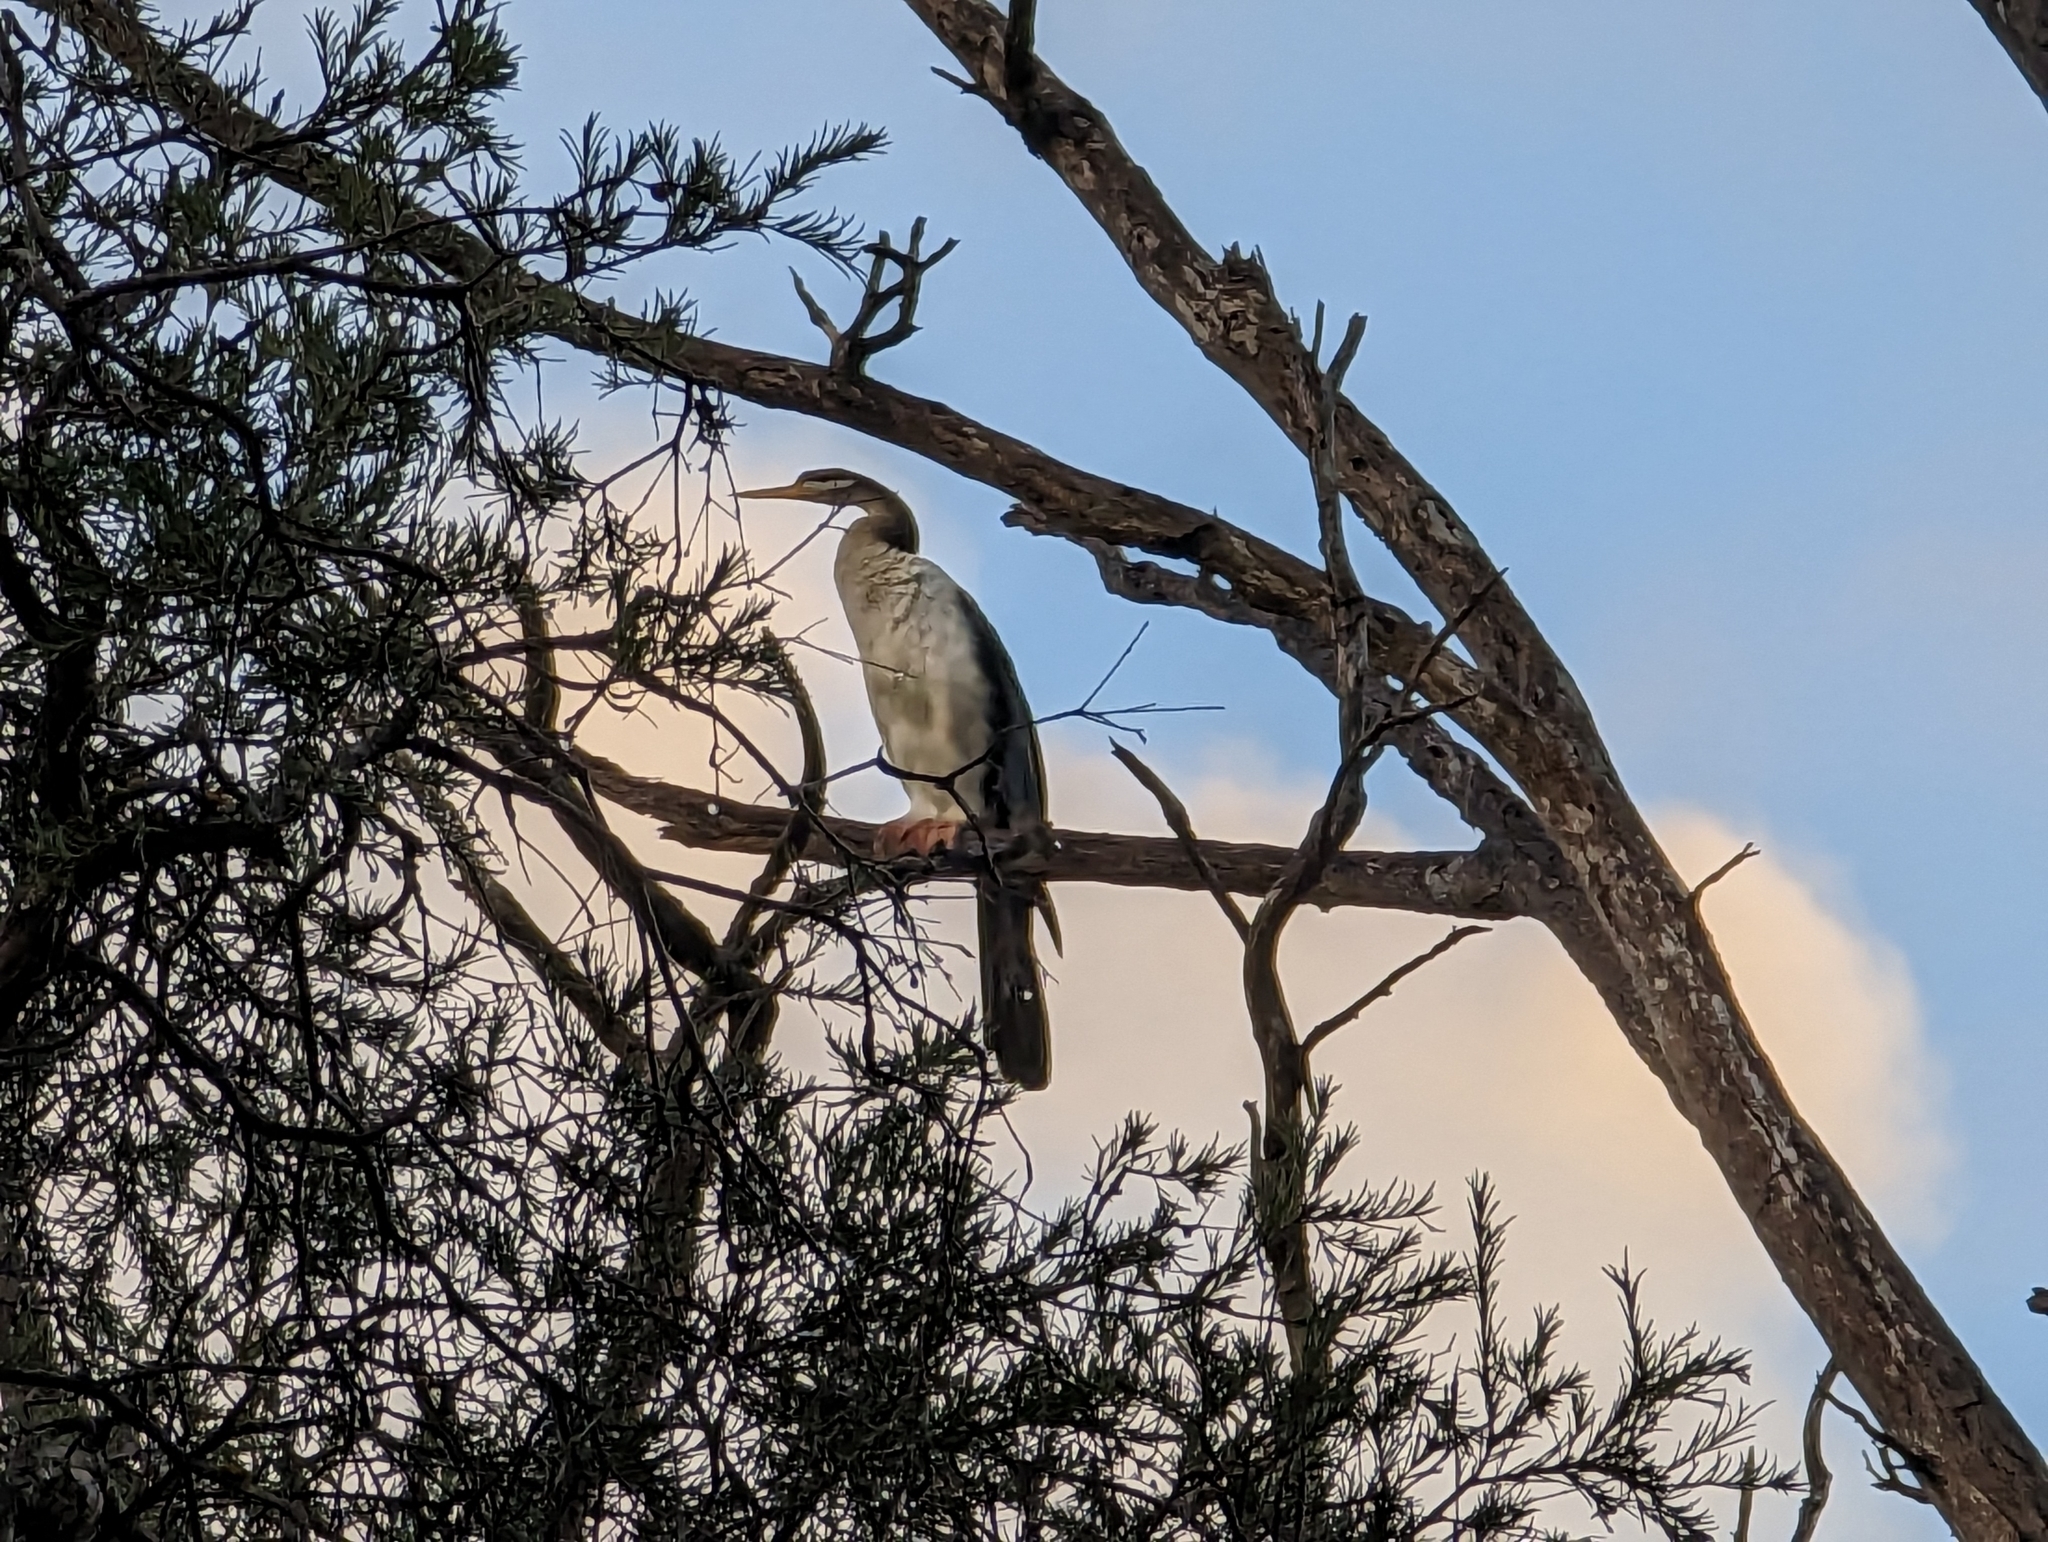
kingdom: Animalia
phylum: Chordata
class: Aves
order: Suliformes
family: Anhingidae
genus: Anhinga
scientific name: Anhinga novaehollandiae
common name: Australasian darter
